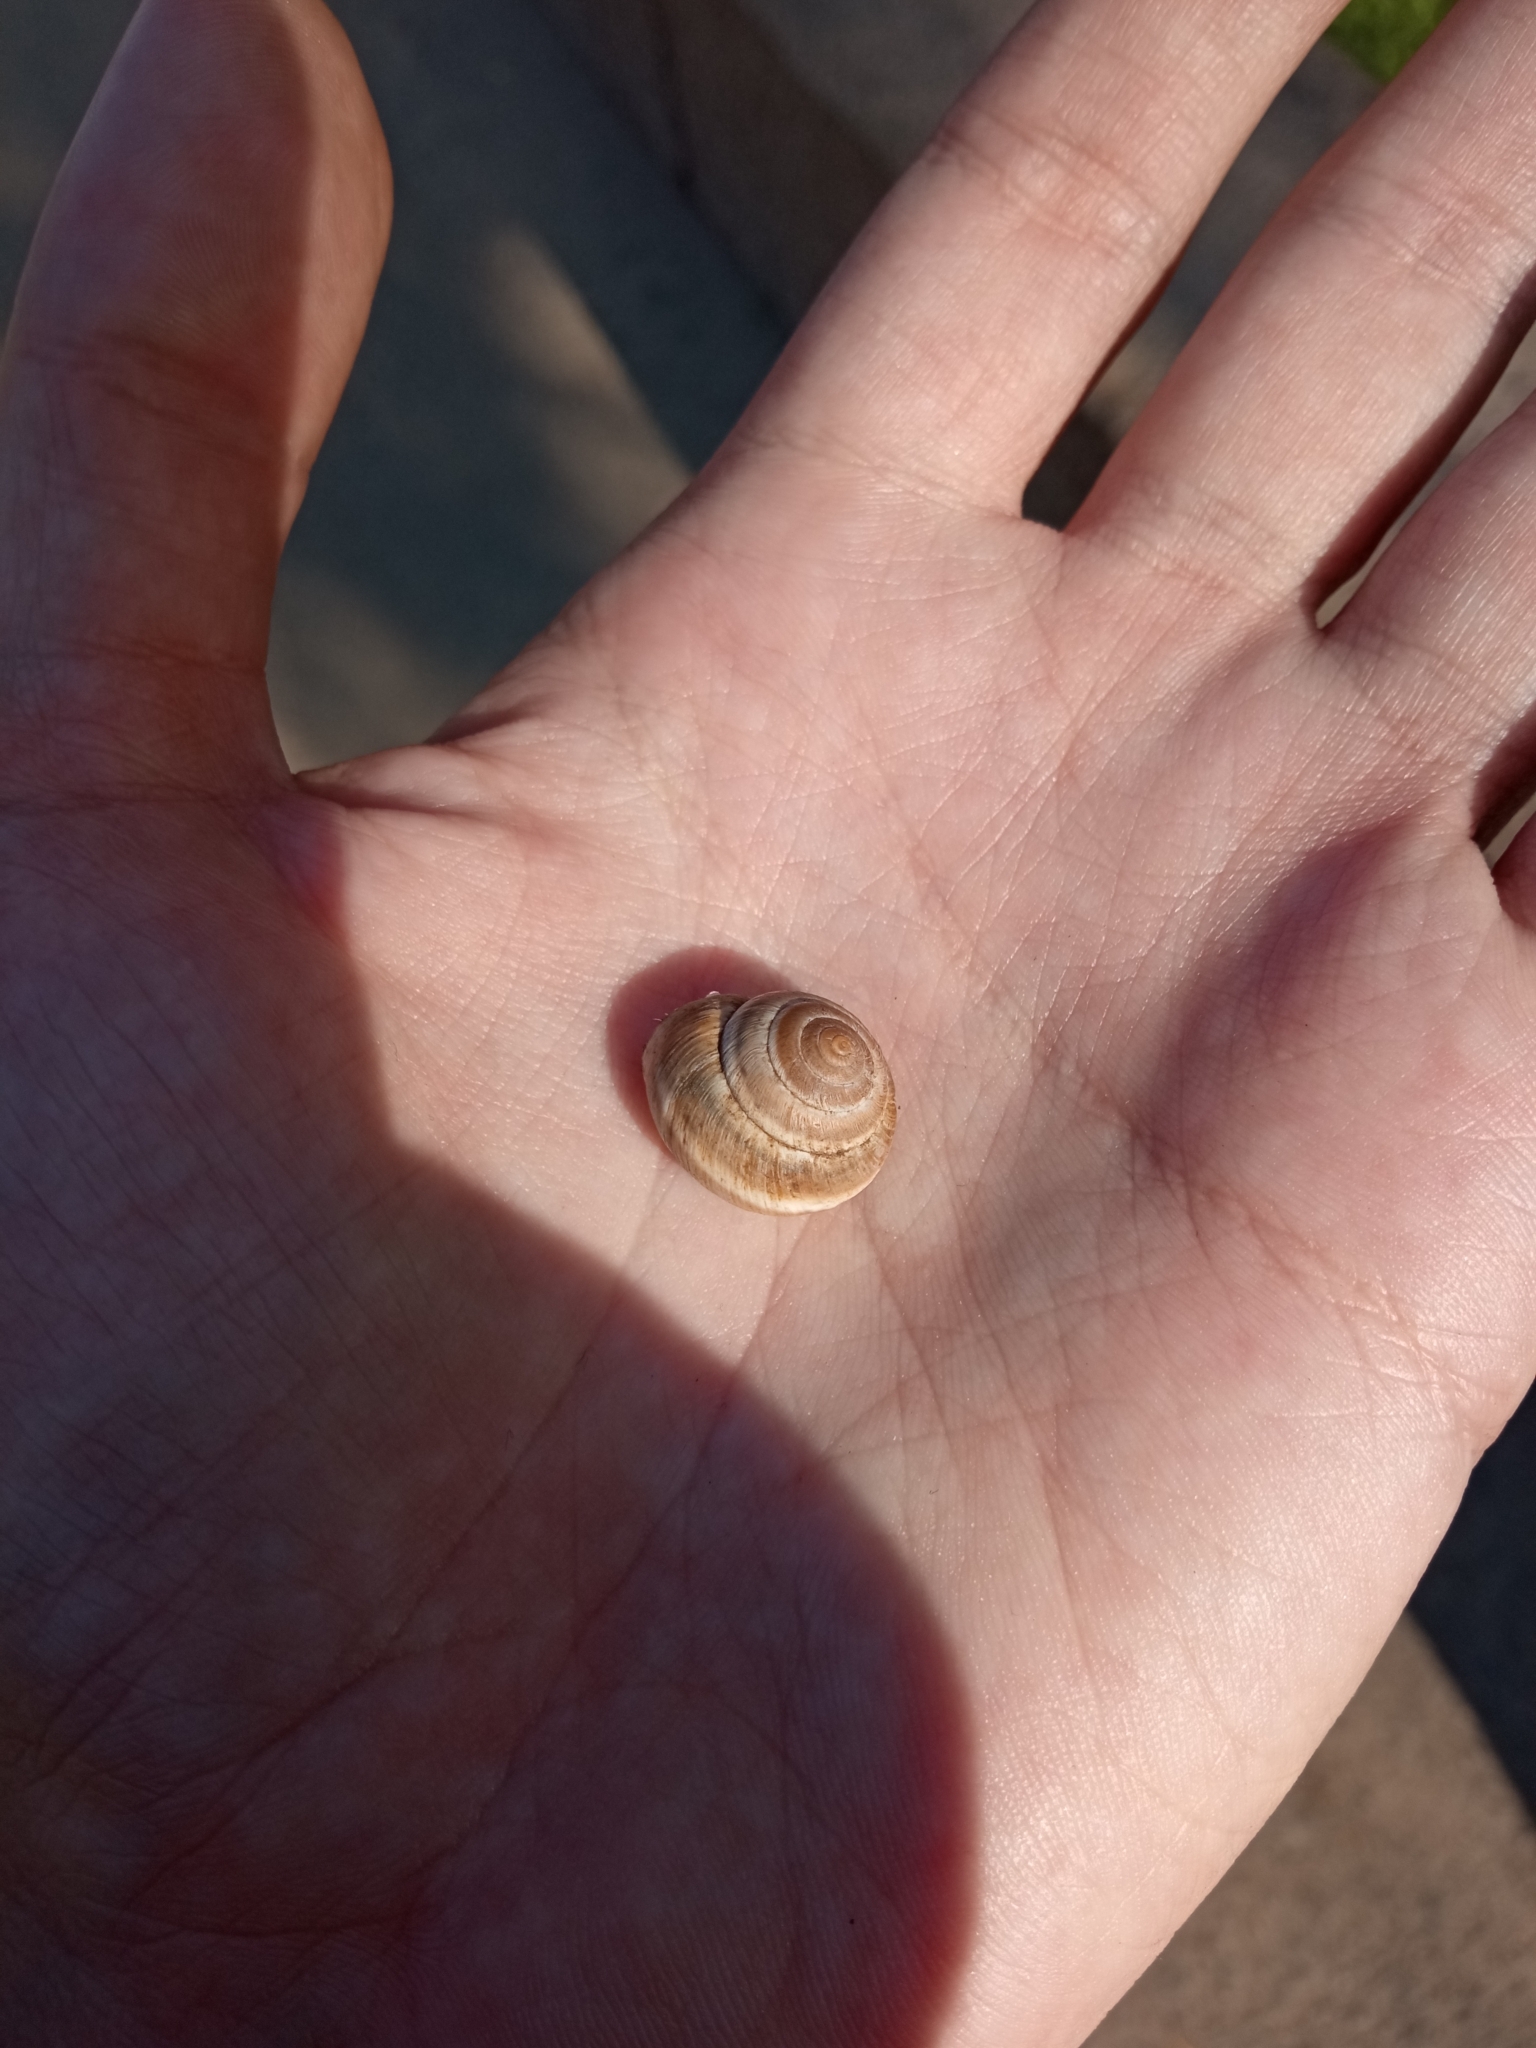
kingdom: Animalia
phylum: Mollusca
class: Gastropoda
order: Stylommatophora
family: Hygromiidae
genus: Harmozica
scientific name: Harmozica ravergiensis
